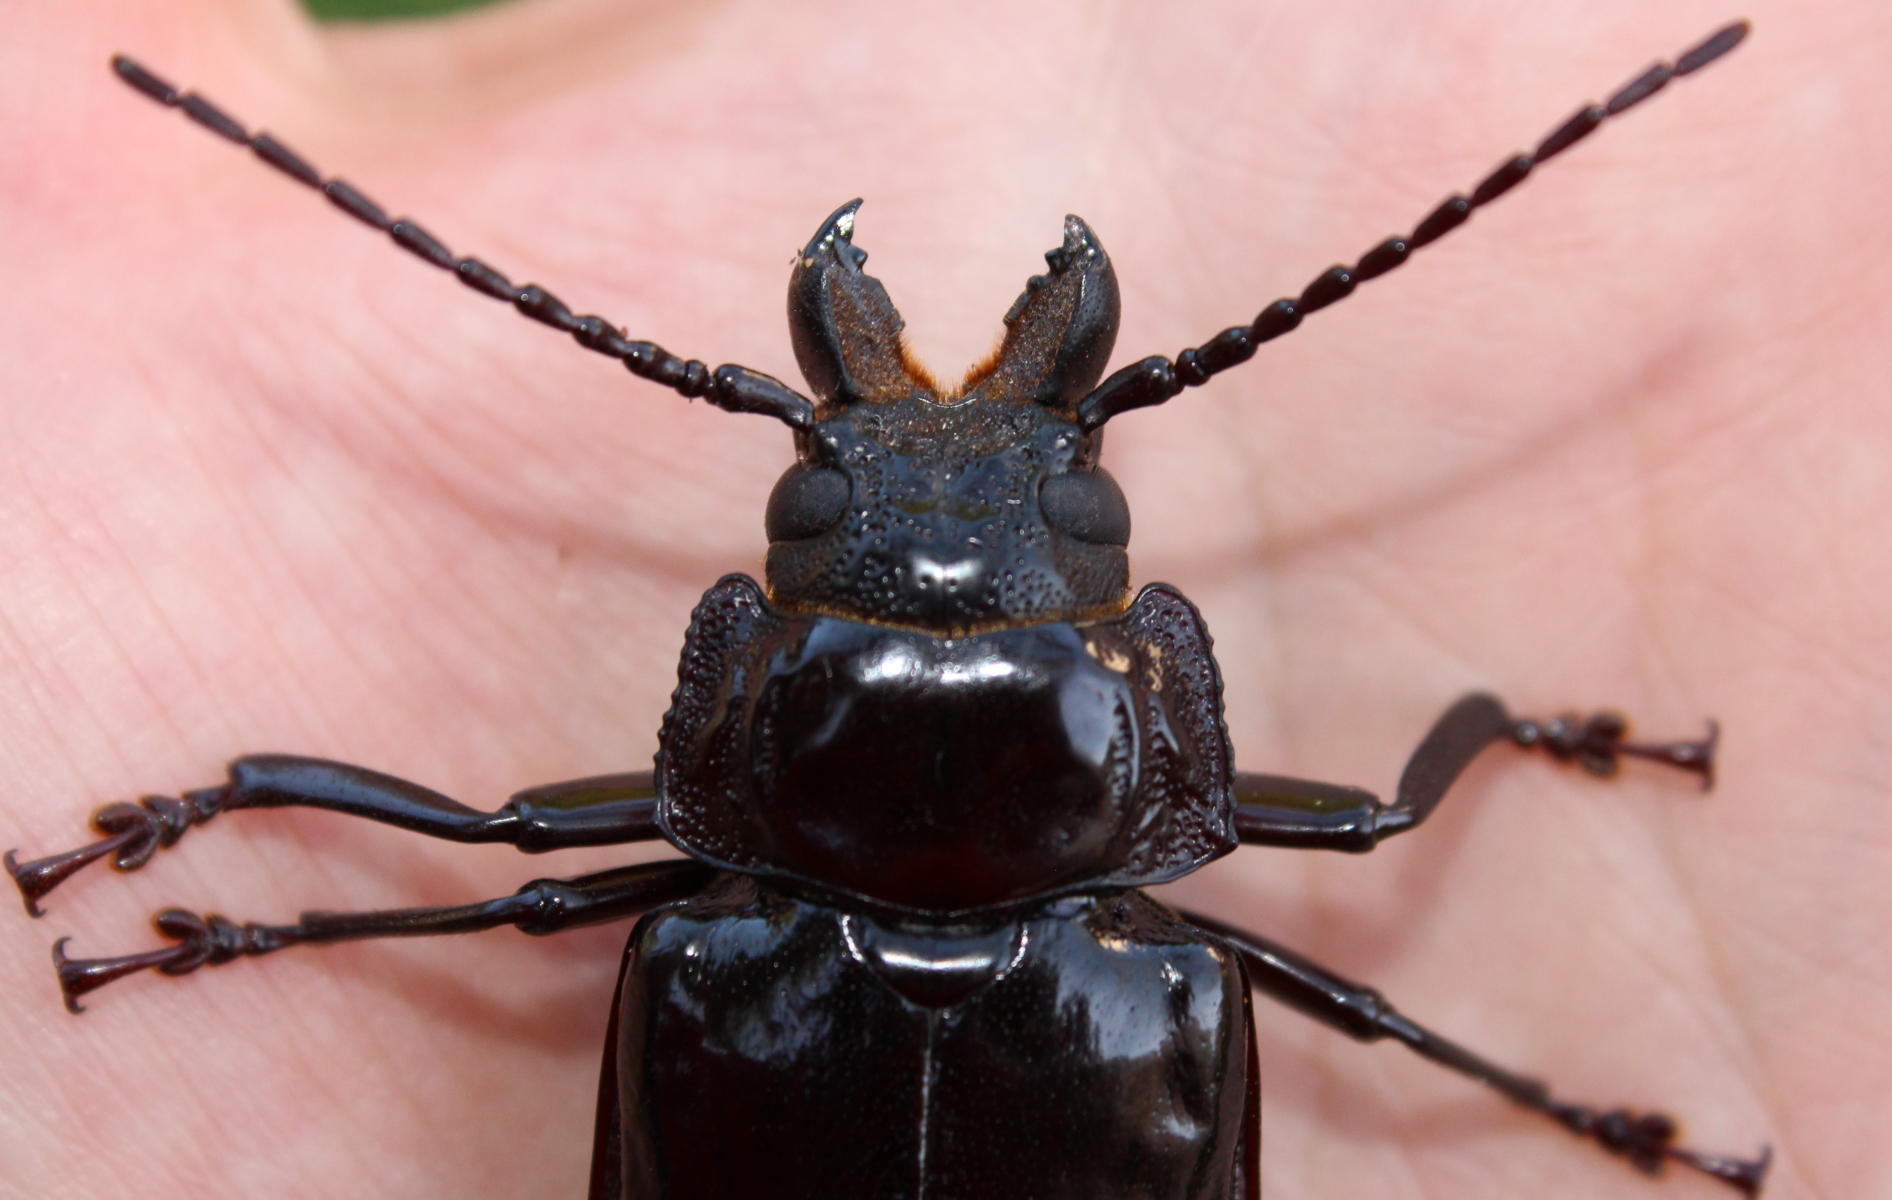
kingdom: Animalia
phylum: Arthropoda
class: Insecta
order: Coleoptera
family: Cerambycidae
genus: Mallodon
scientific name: Mallodon downesii
